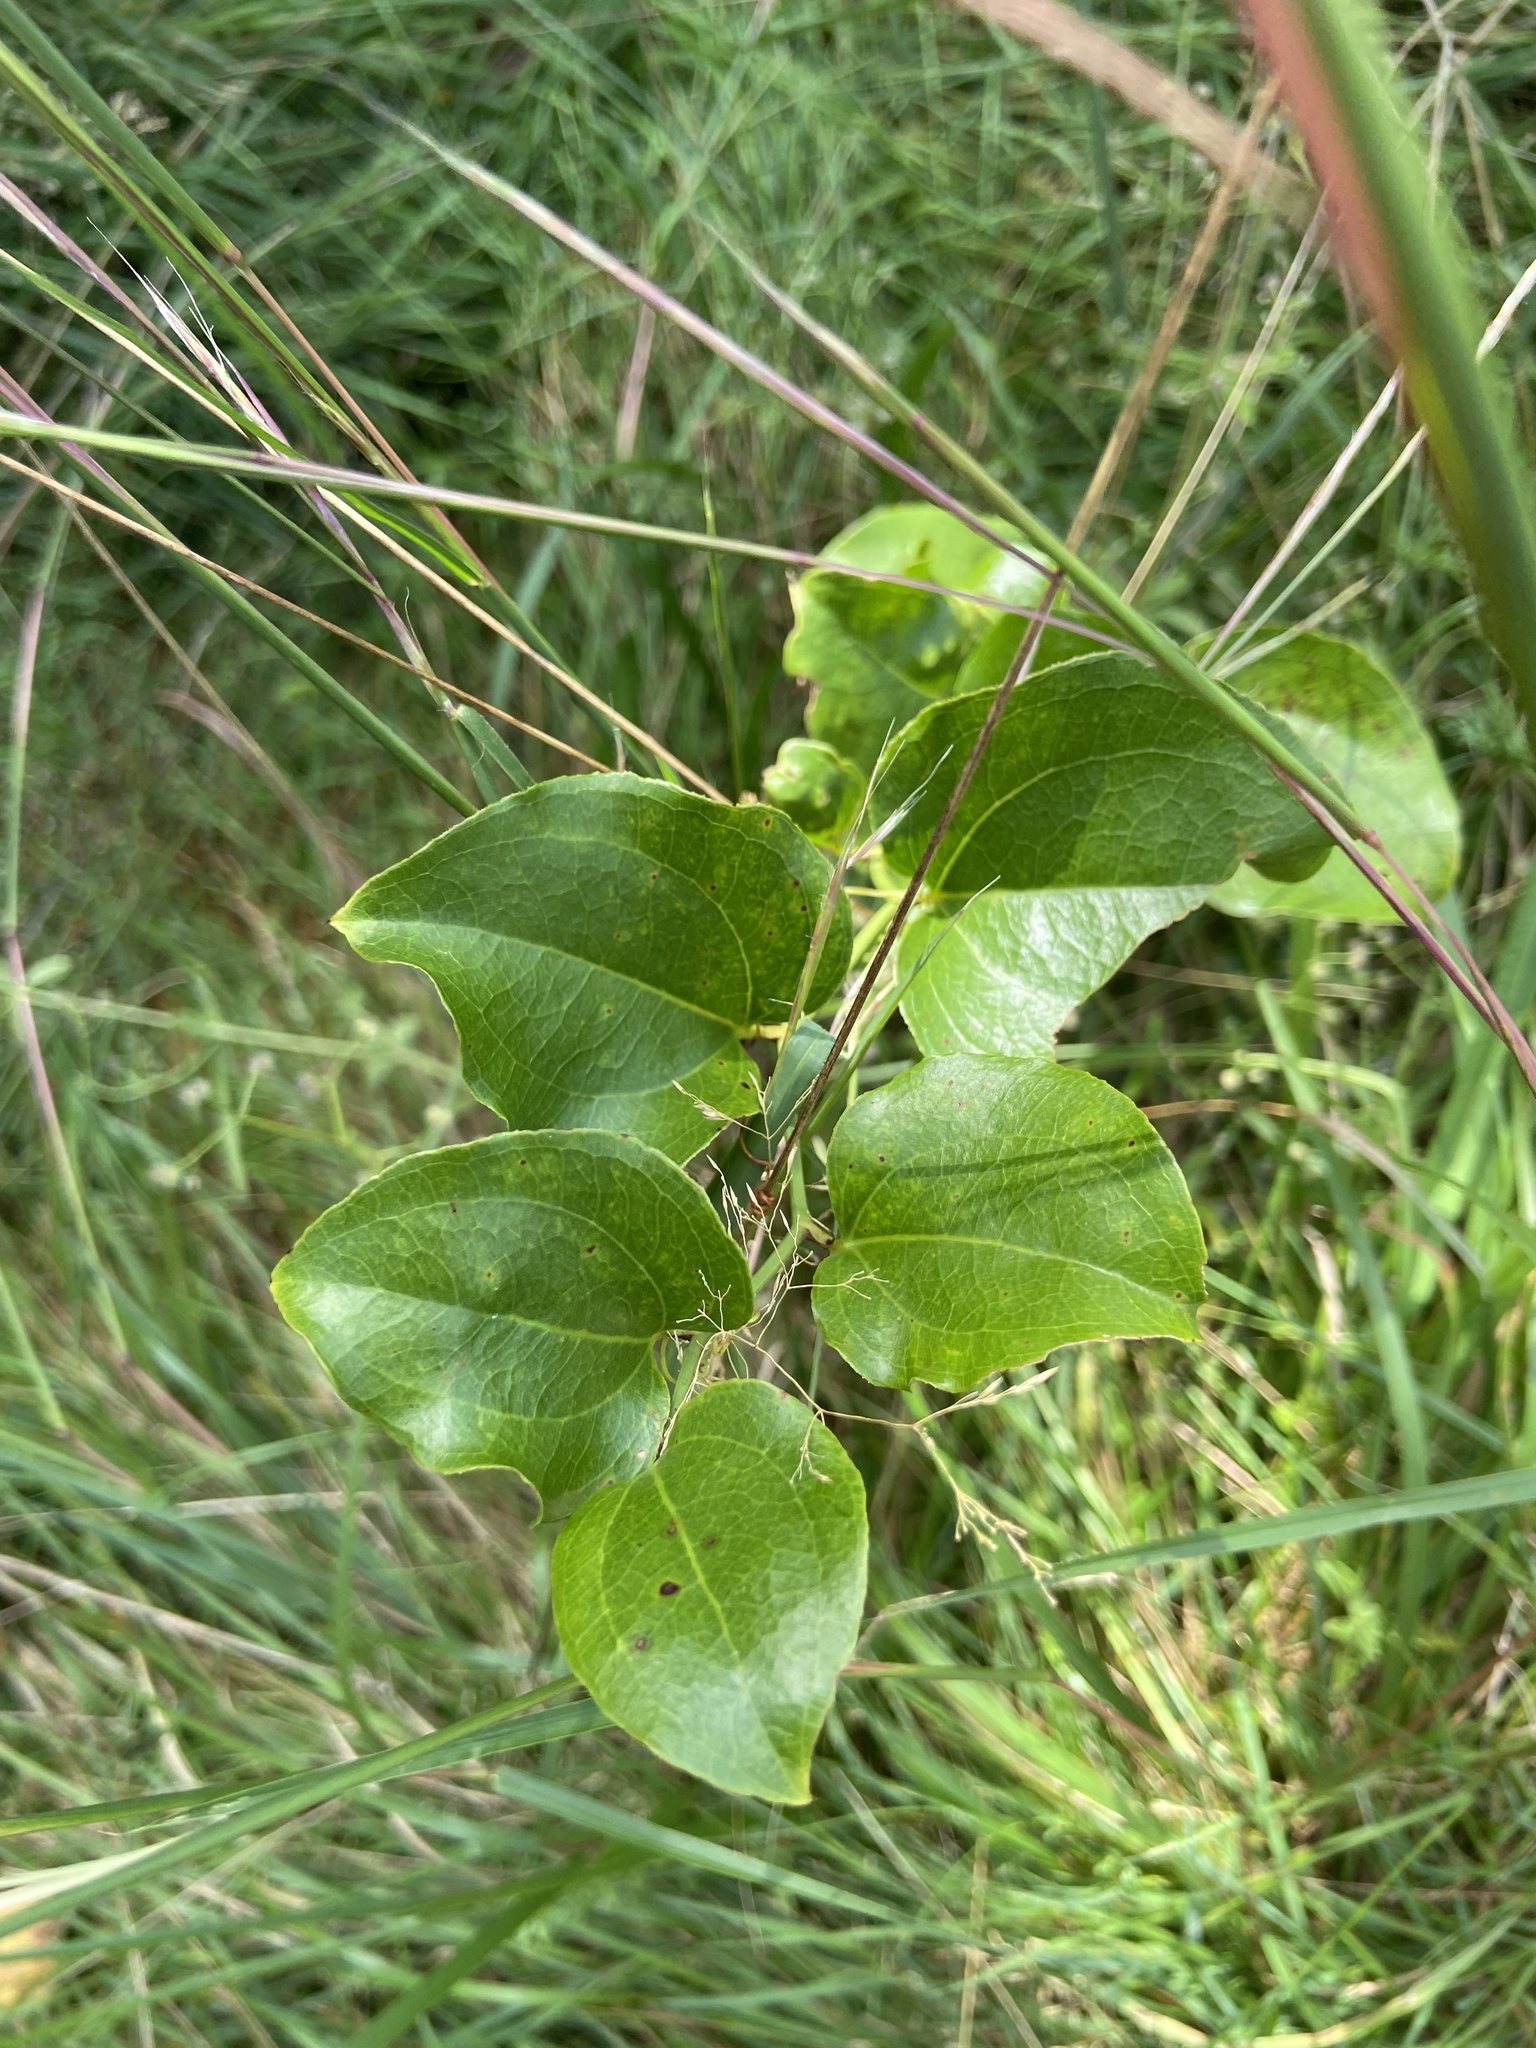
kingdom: Plantae
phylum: Tracheophyta
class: Liliopsida
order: Liliales
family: Smilacaceae
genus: Smilax
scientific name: Smilax rotundifolia
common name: Bullbriar
